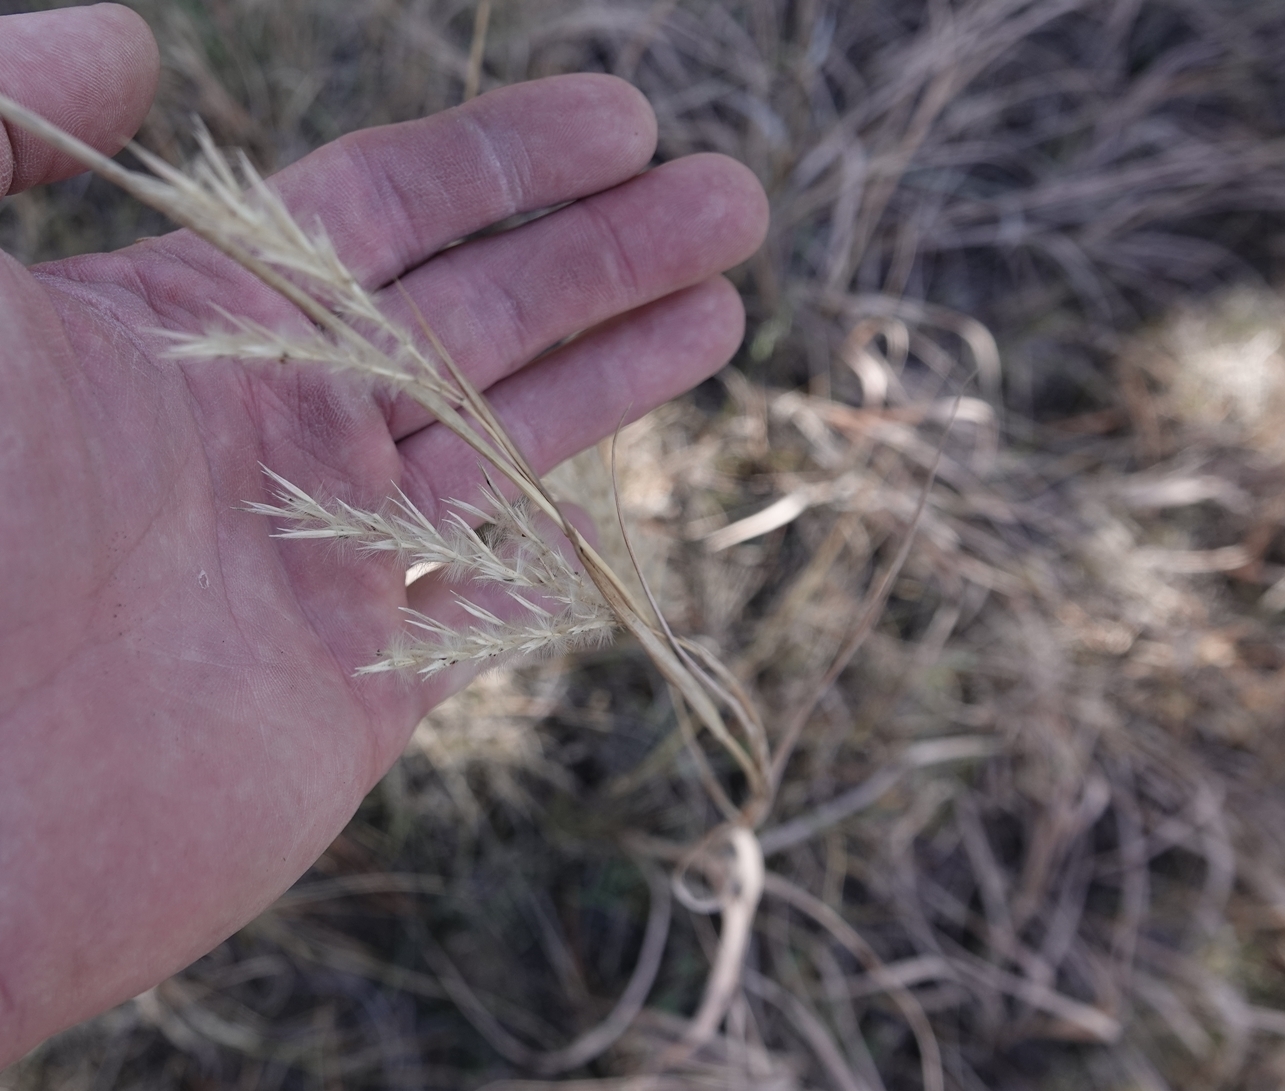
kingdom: Plantae
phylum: Tracheophyta
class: Liliopsida
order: Poales
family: Poaceae
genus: Andropogon
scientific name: Andropogon hallii
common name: Sand bluestem
